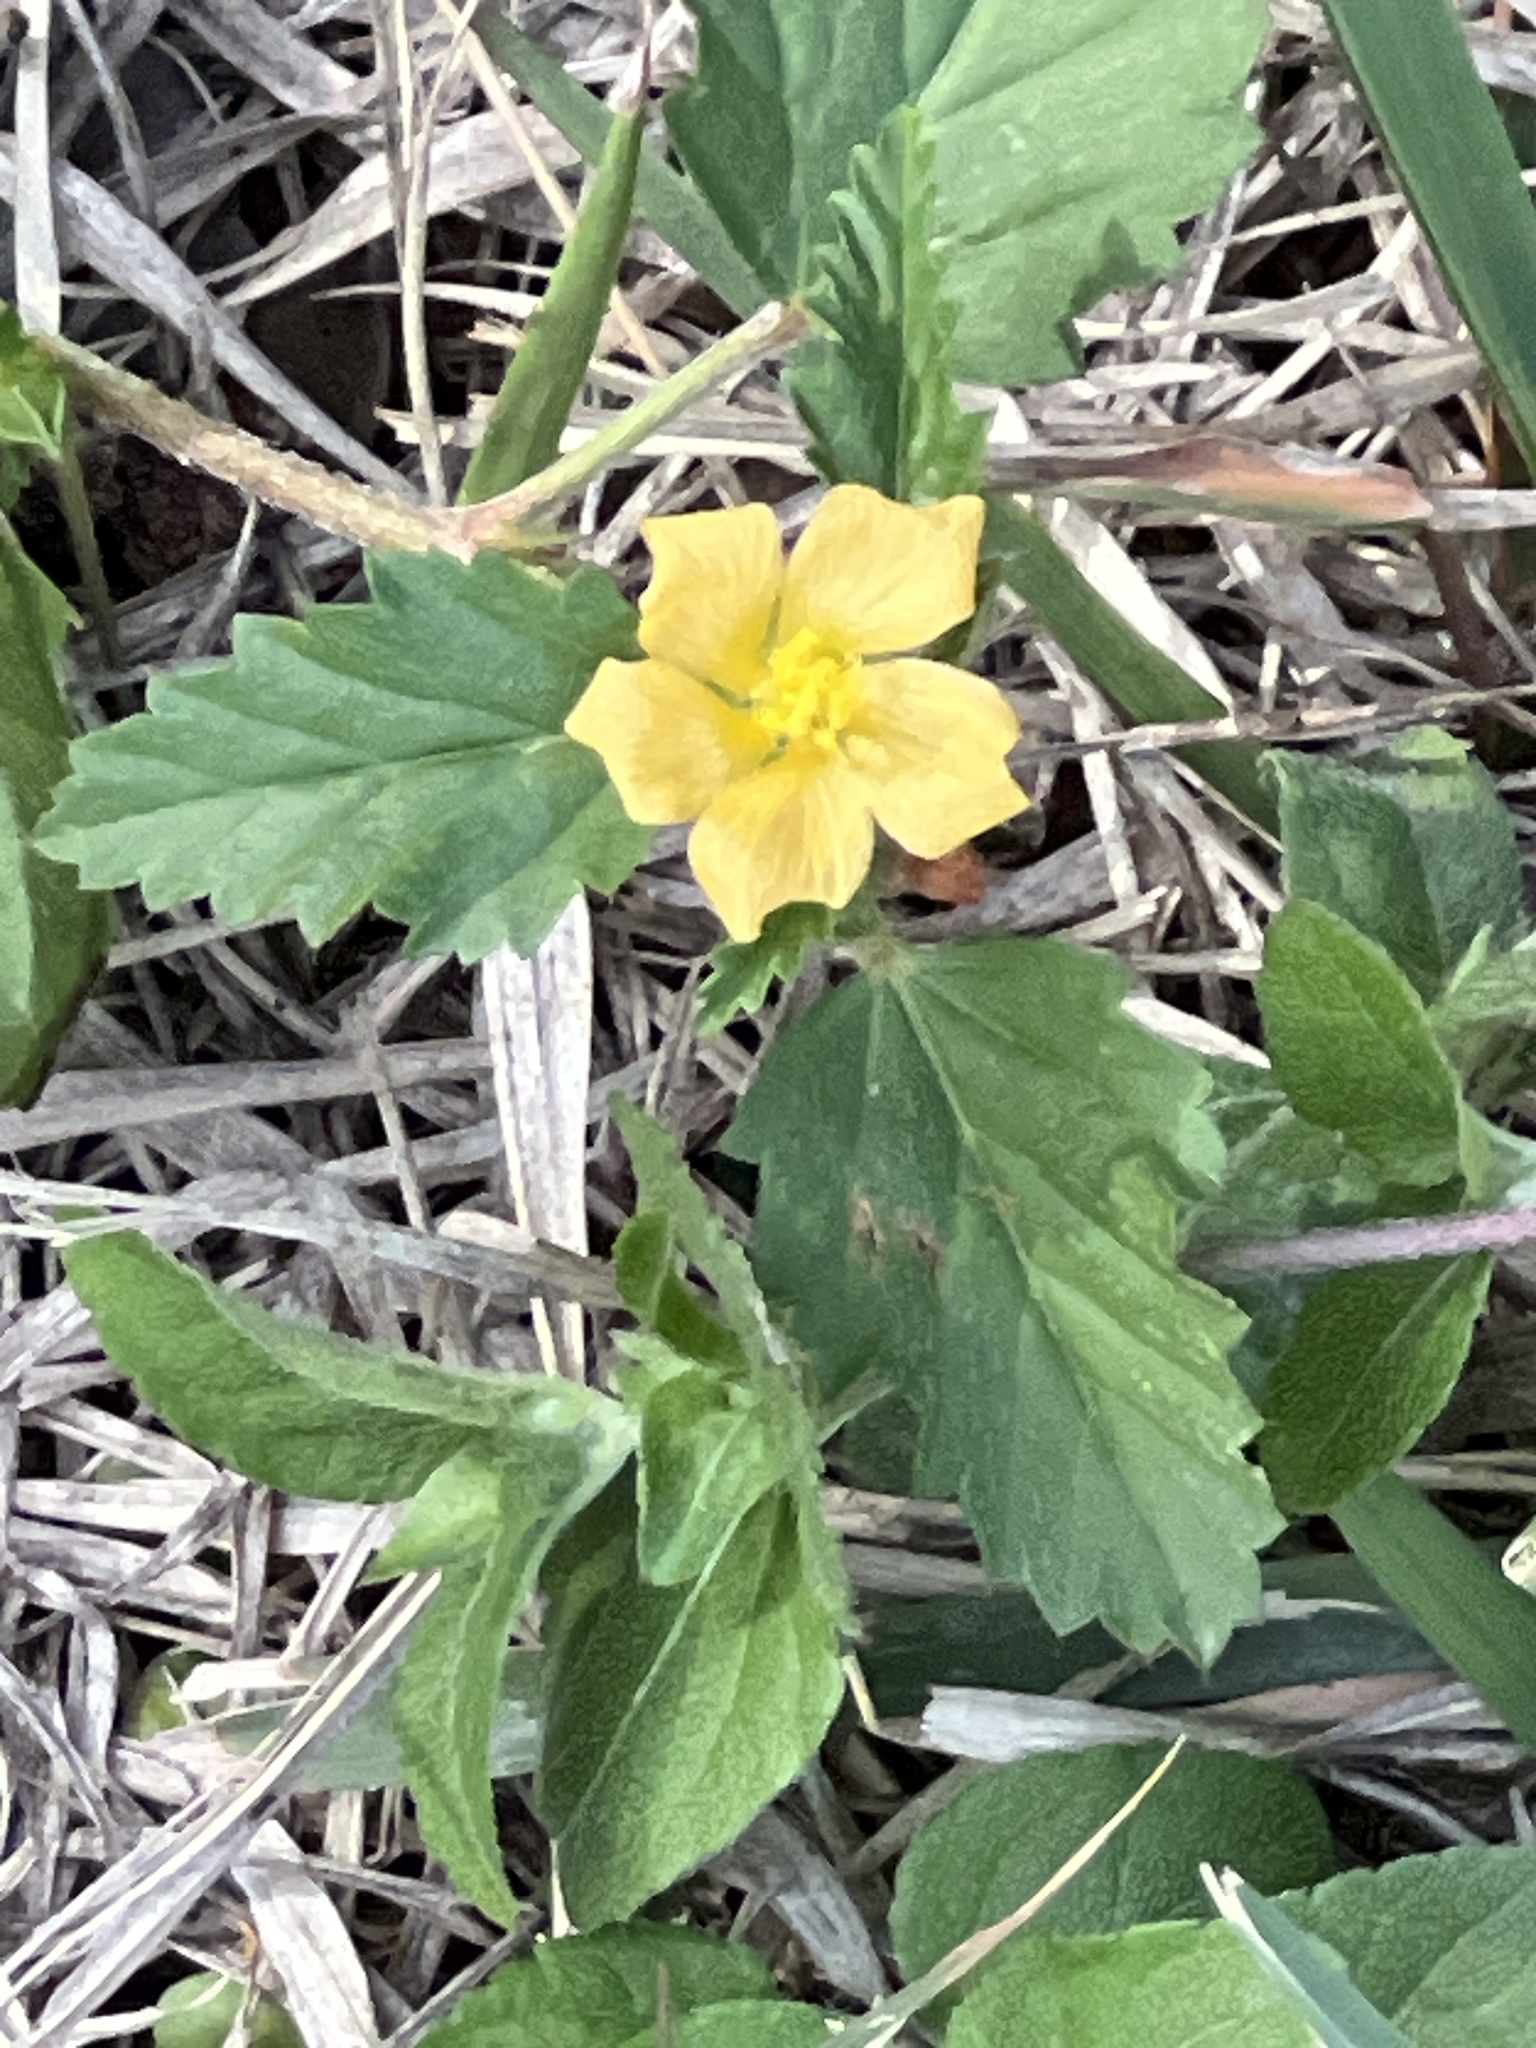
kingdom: Plantae
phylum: Tracheophyta
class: Magnoliopsida
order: Malvales
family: Malvaceae
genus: Malvastrum
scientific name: Malvastrum coromandelianum
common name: Threelobe false mallow
